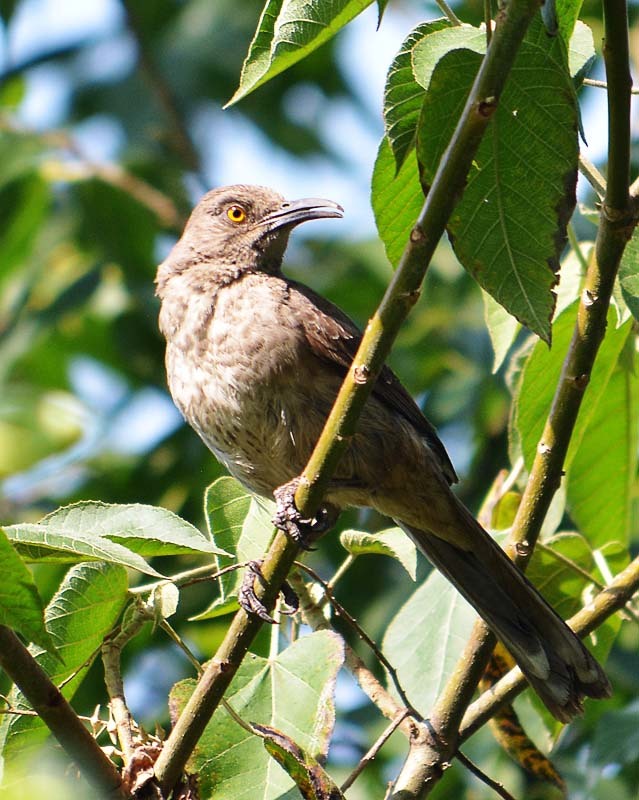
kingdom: Animalia
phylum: Chordata
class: Aves
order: Passeriformes
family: Mimidae
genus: Toxostoma
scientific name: Toxostoma curvirostre
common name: Curve-billed thrasher
